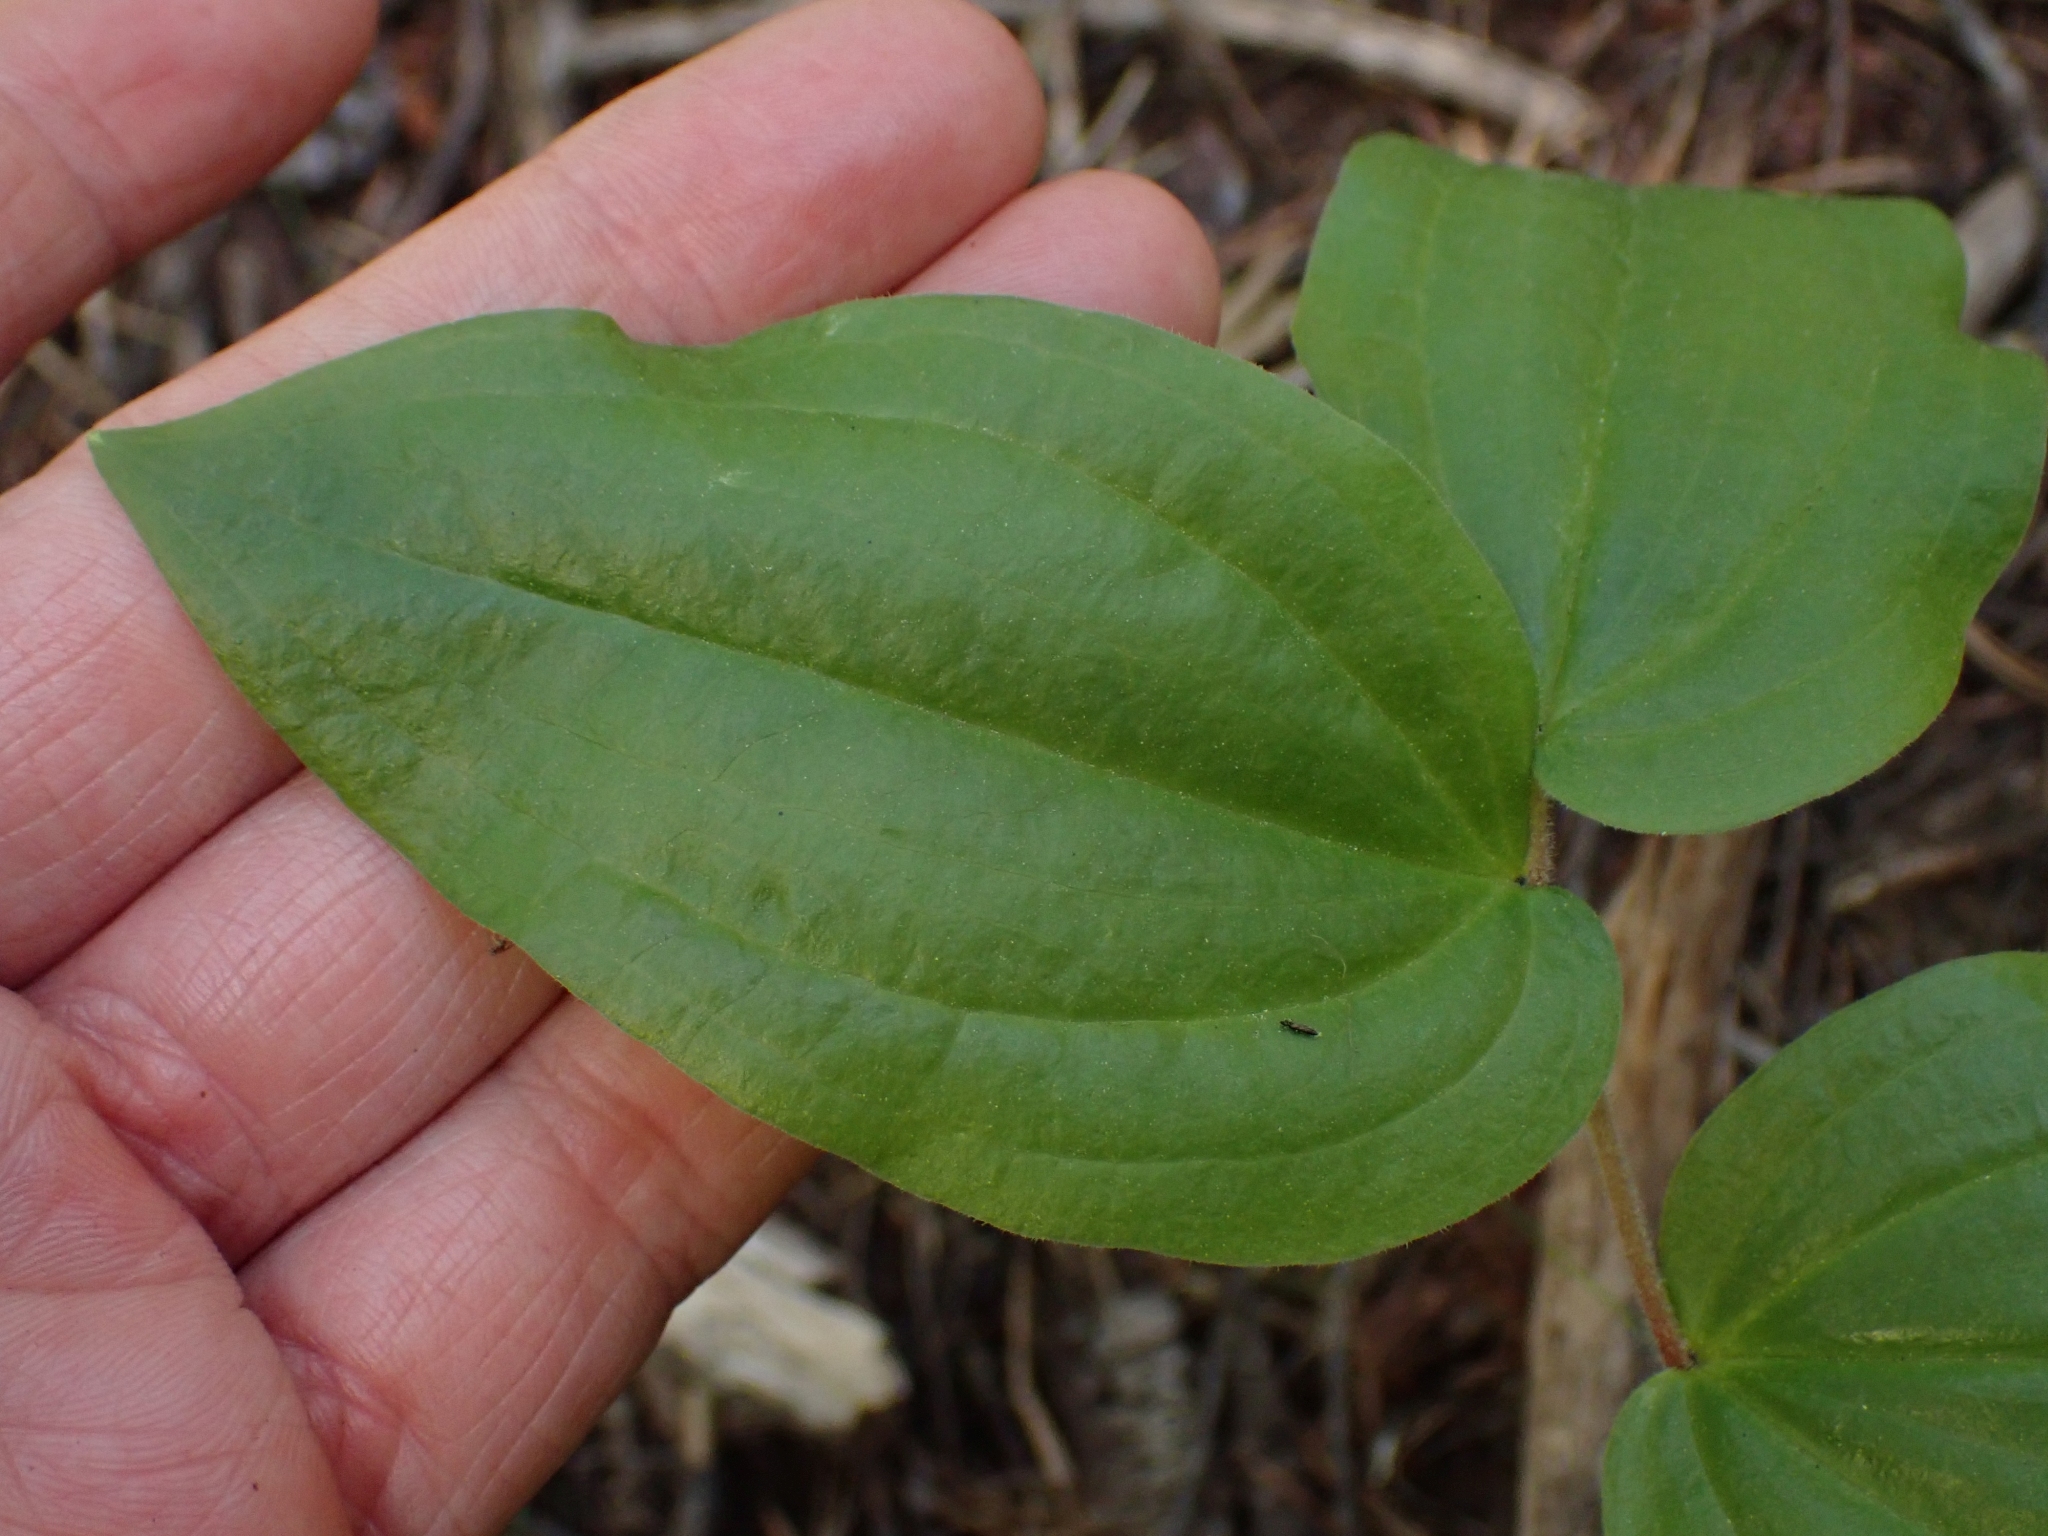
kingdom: Plantae
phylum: Tracheophyta
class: Liliopsida
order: Liliales
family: Liliaceae
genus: Prosartes
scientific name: Prosartes trachycarpa
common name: Rough-fruit fairy-bells
